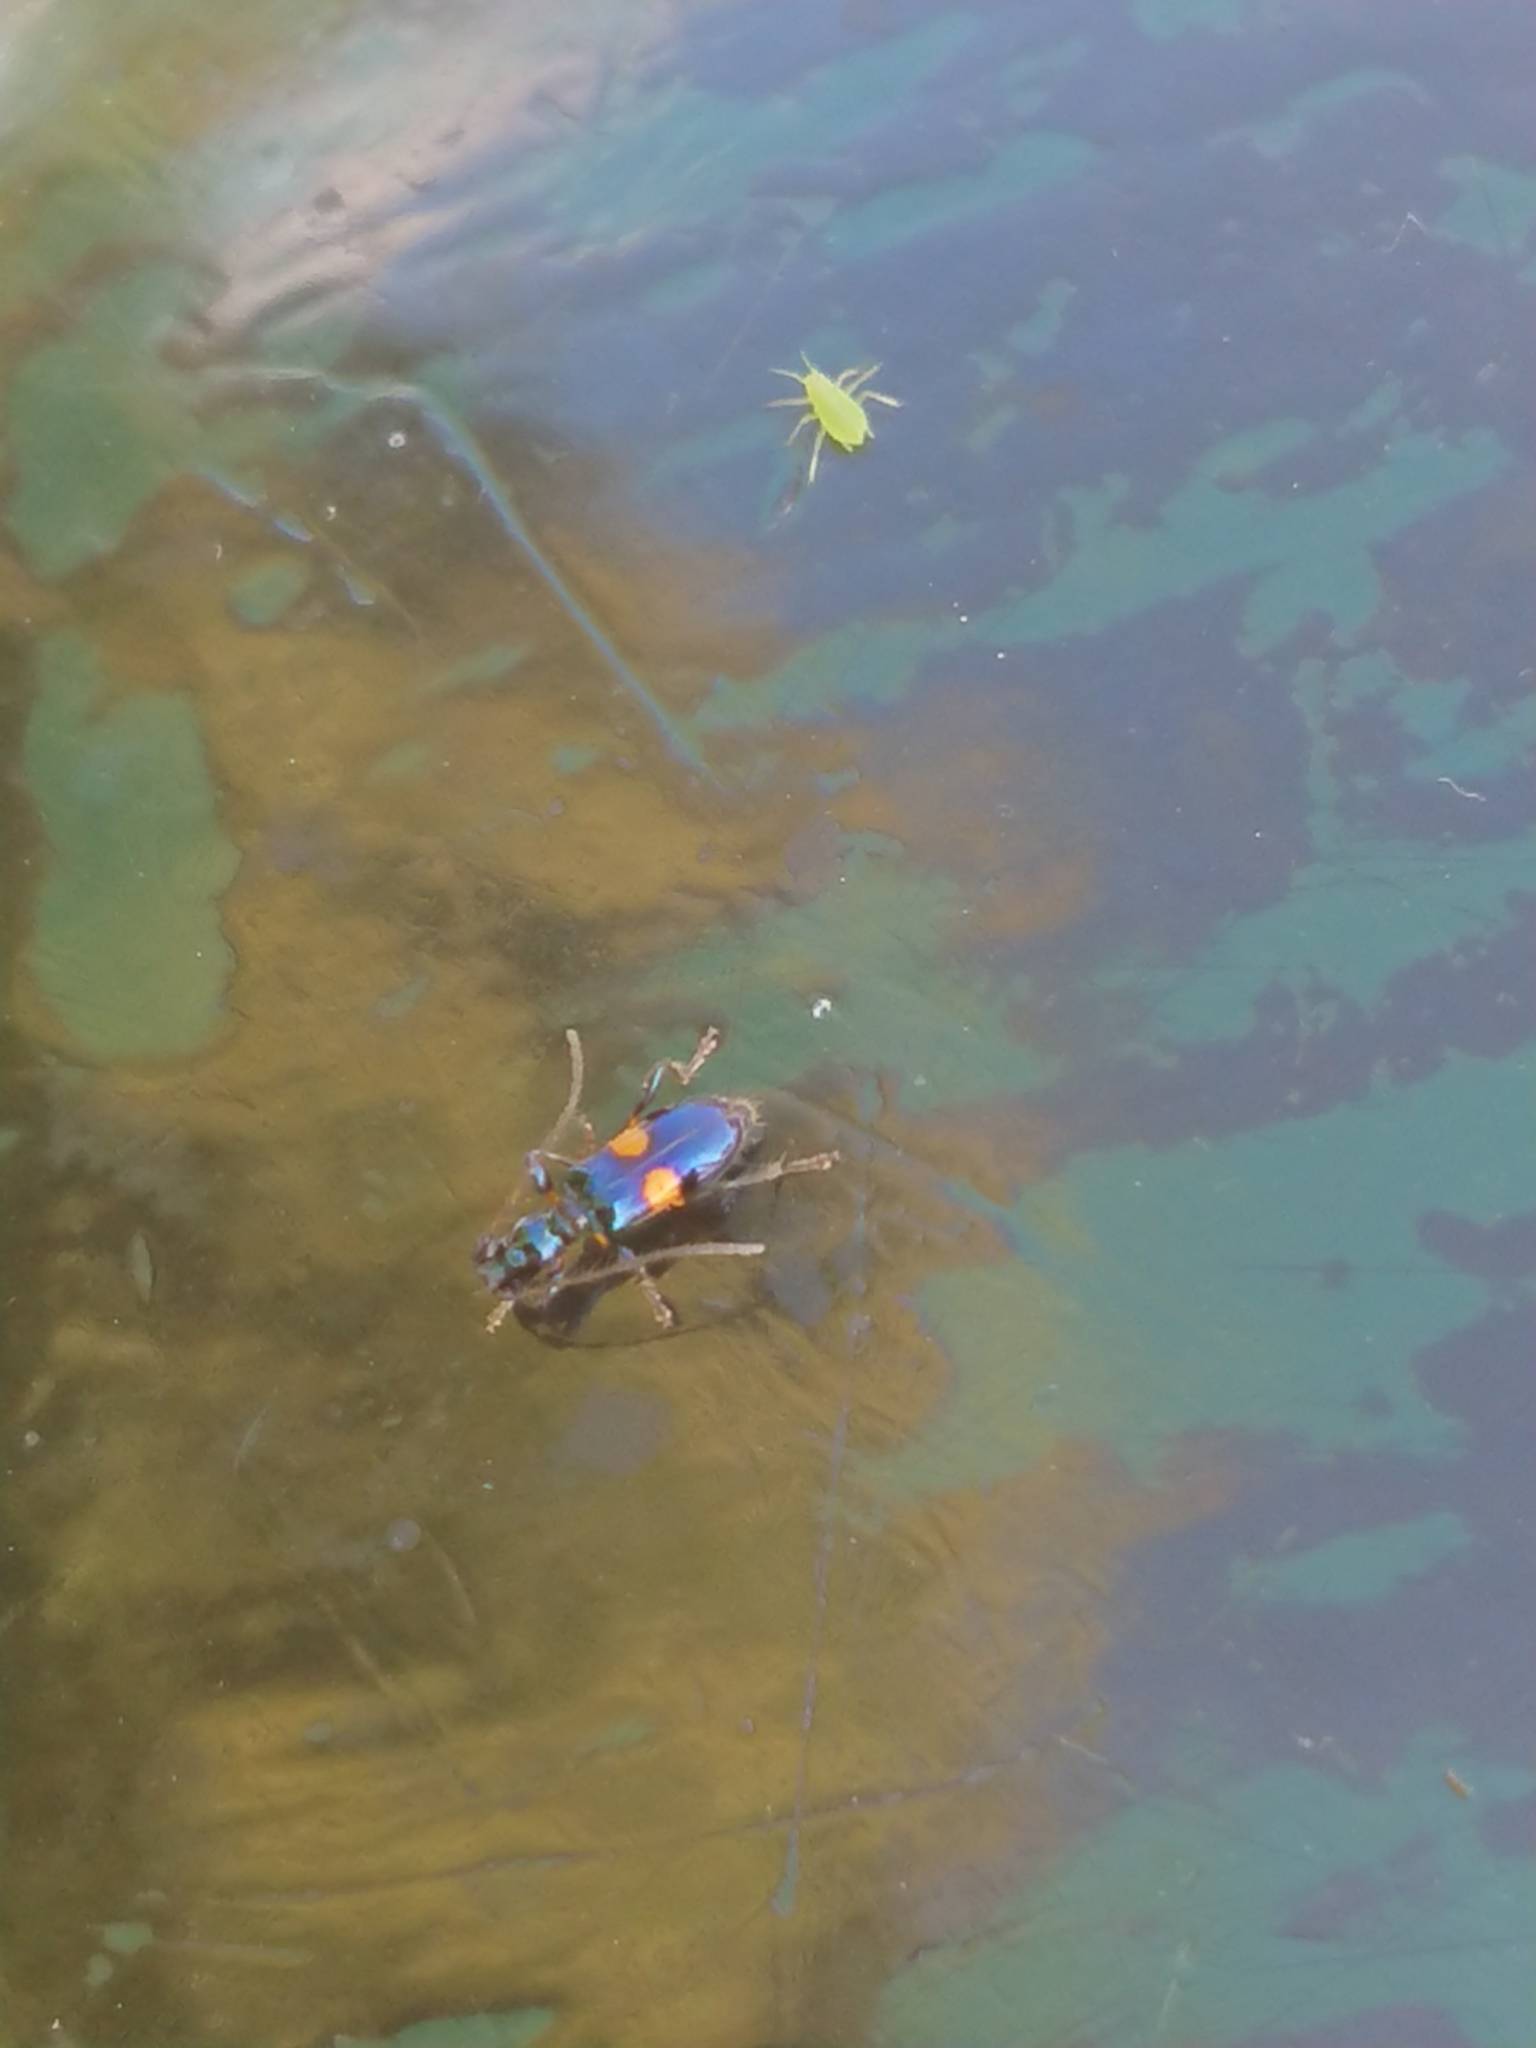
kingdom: Animalia
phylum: Arthropoda
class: Insecta
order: Coleoptera
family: Cerambycidae
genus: Zorion
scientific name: Zorion guttigerum
